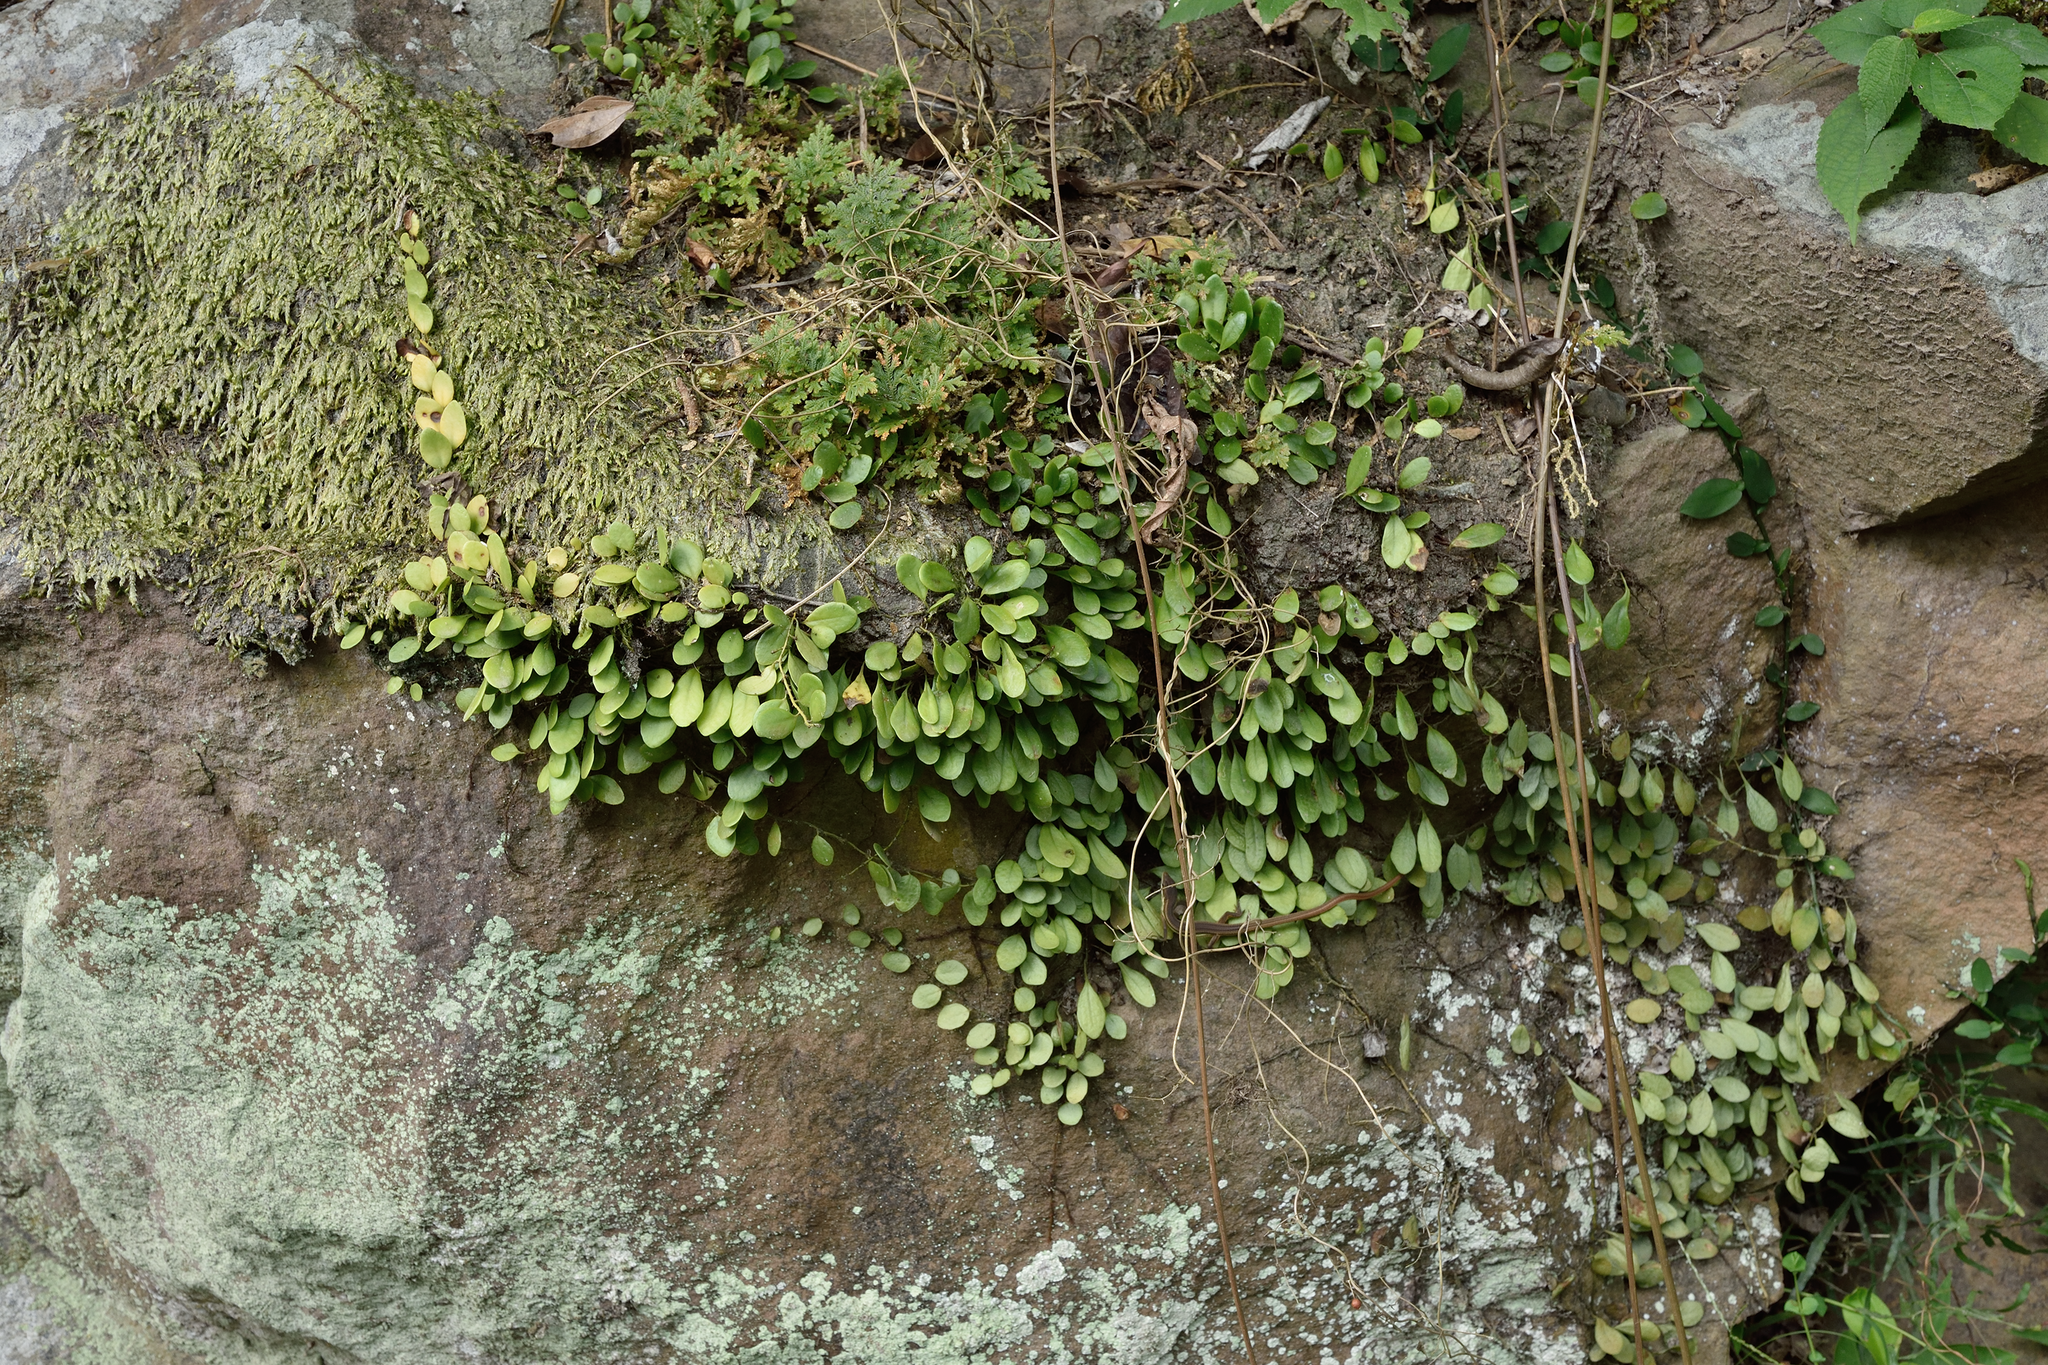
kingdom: Plantae
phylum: Tracheophyta
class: Polypodiopsida
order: Polypodiales
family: Polypodiaceae
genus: Lepisorus
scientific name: Lepisorus microphyllus
